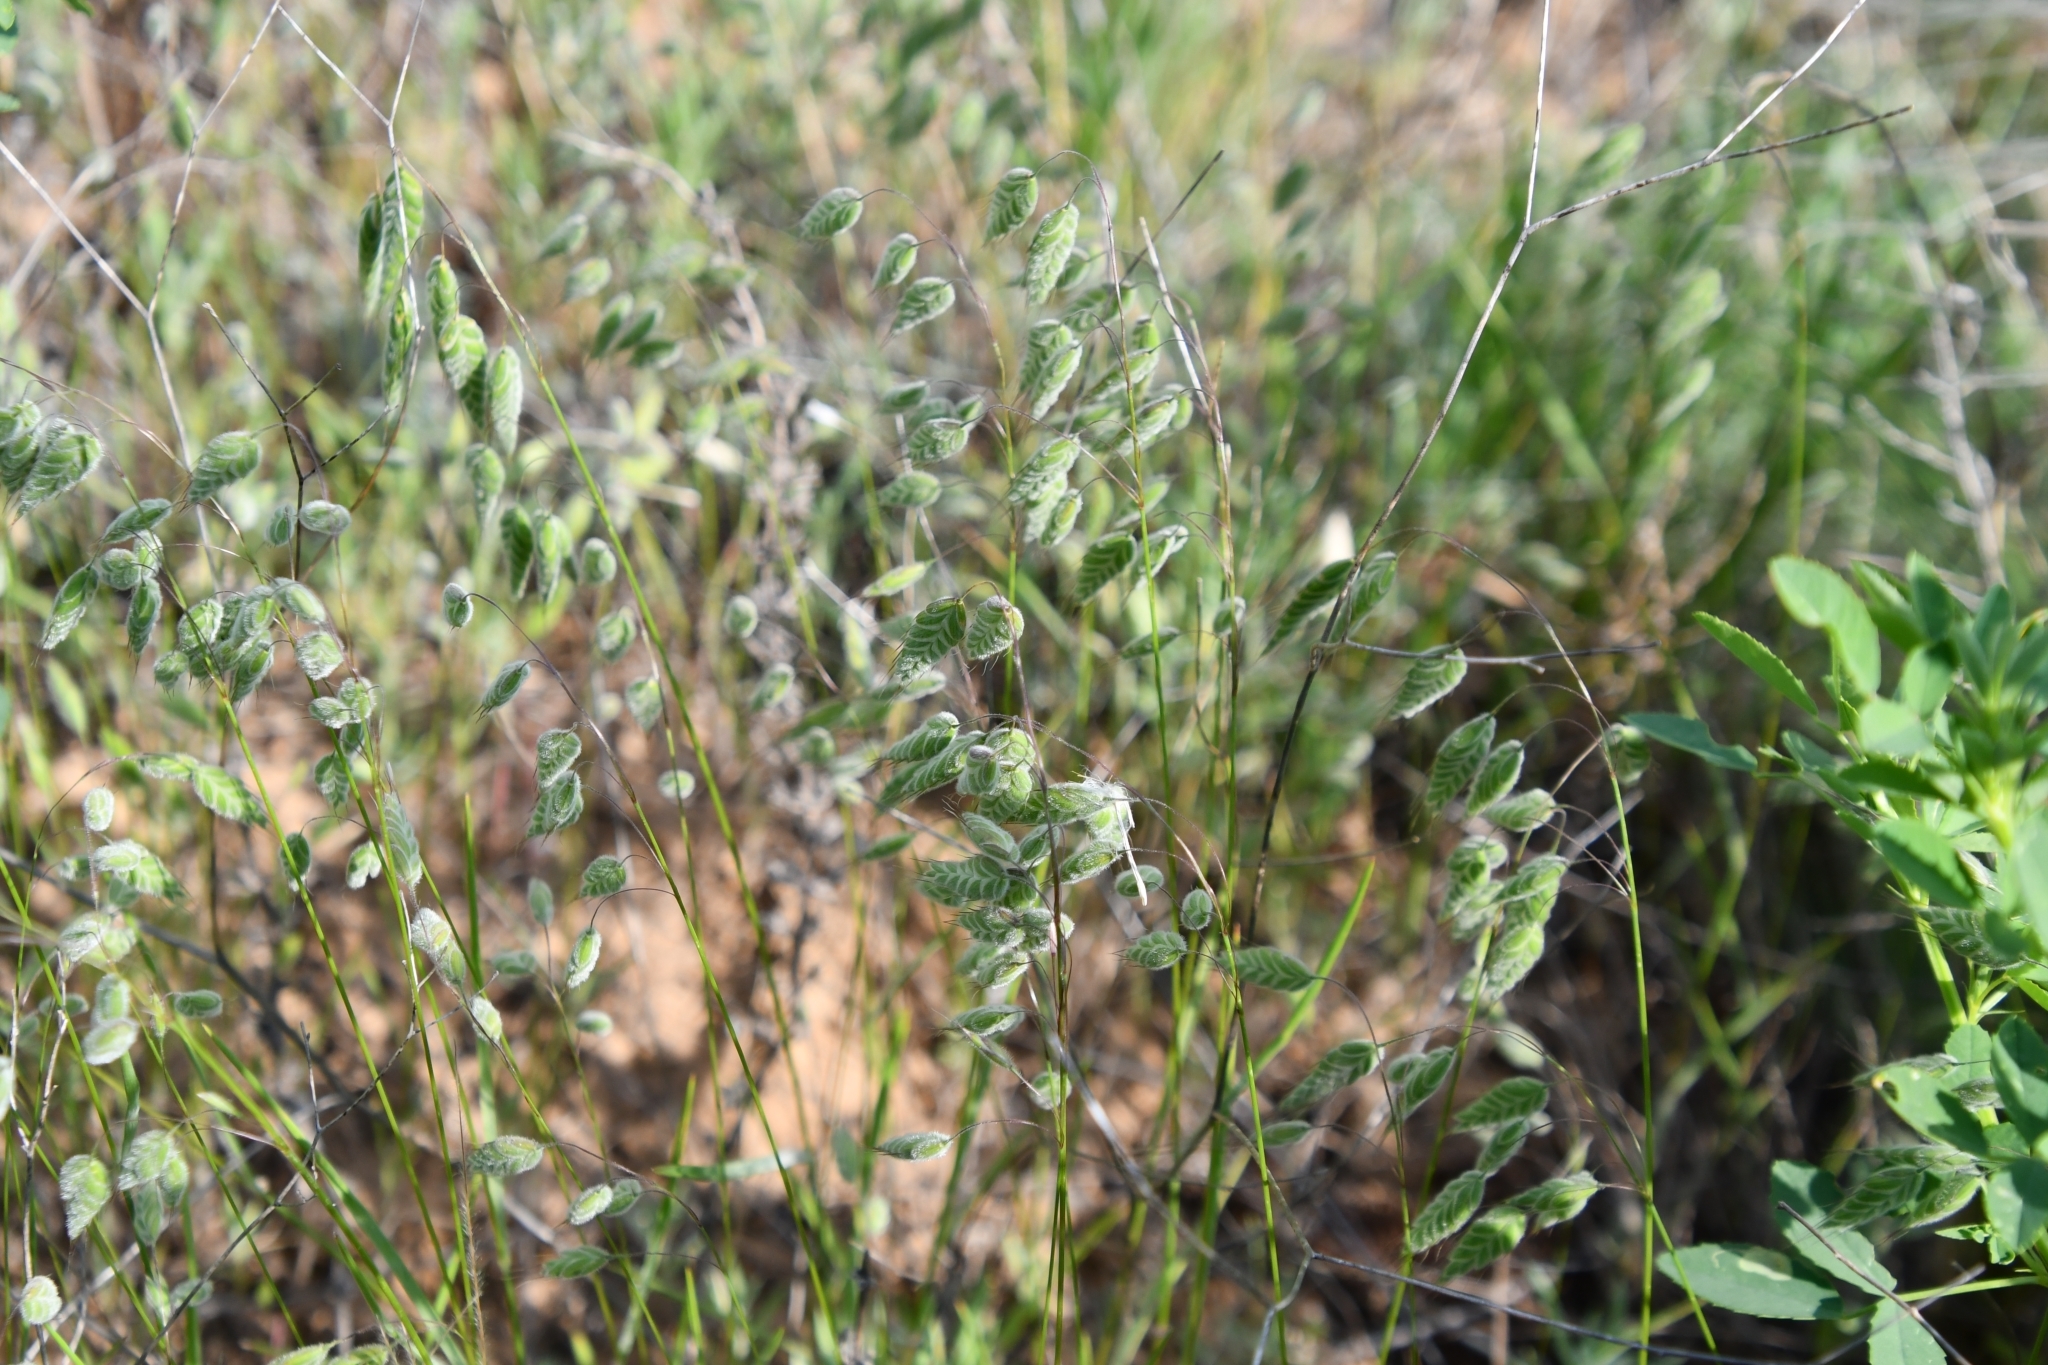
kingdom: Plantae
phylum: Tracheophyta
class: Liliopsida
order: Poales
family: Poaceae
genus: Bromus
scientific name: Bromus squarrosus
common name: Corn brome
